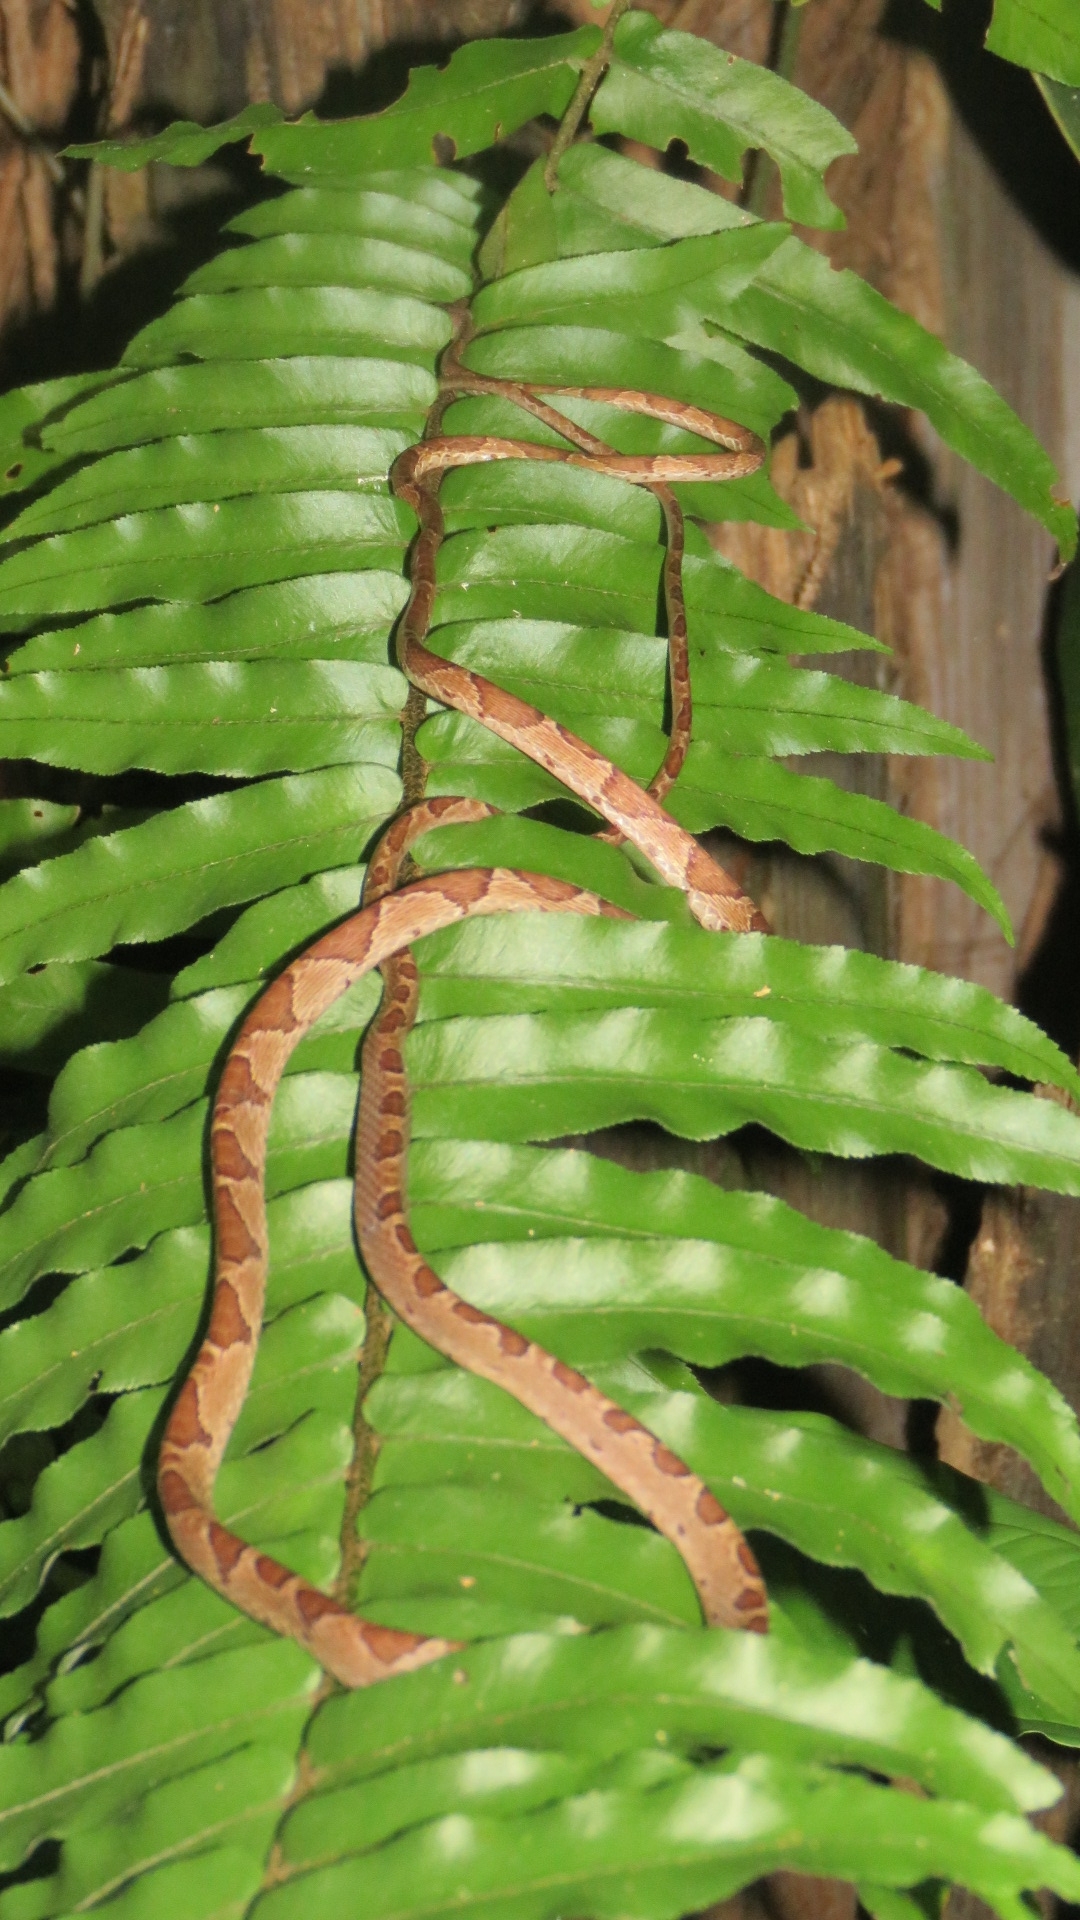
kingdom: Animalia
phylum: Chordata
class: Squamata
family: Colubridae
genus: Imantodes
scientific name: Imantodes cenchoa
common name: Blunthead tree snake
